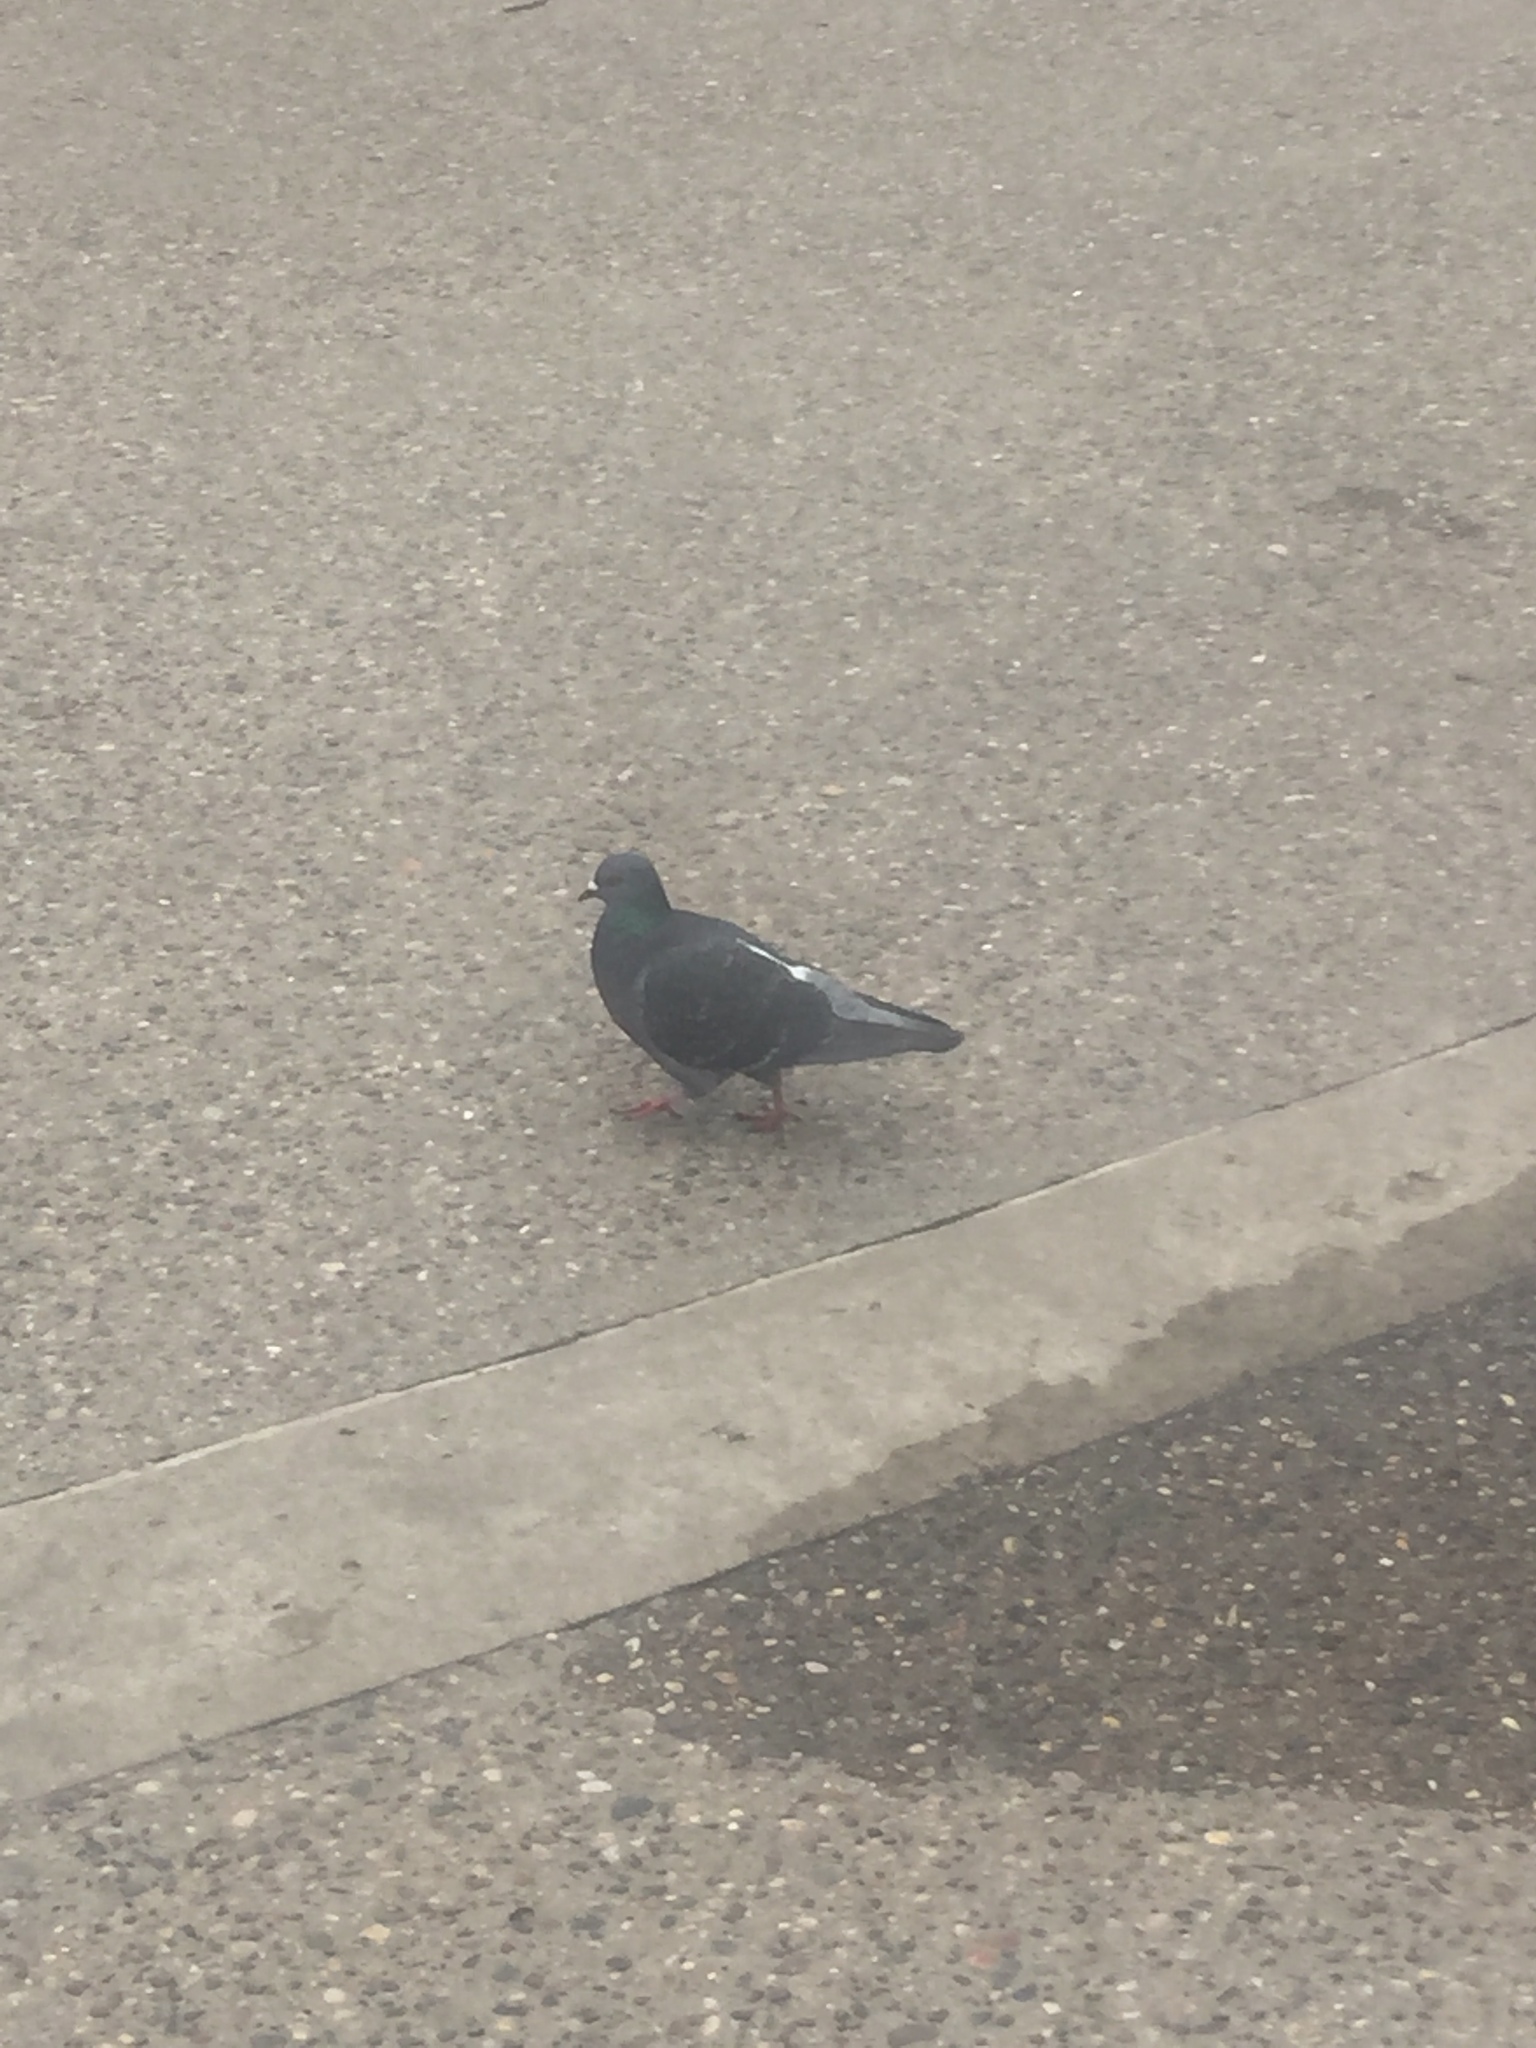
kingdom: Animalia
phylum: Chordata
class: Aves
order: Columbiformes
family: Columbidae
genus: Columba
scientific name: Columba livia
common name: Rock pigeon
